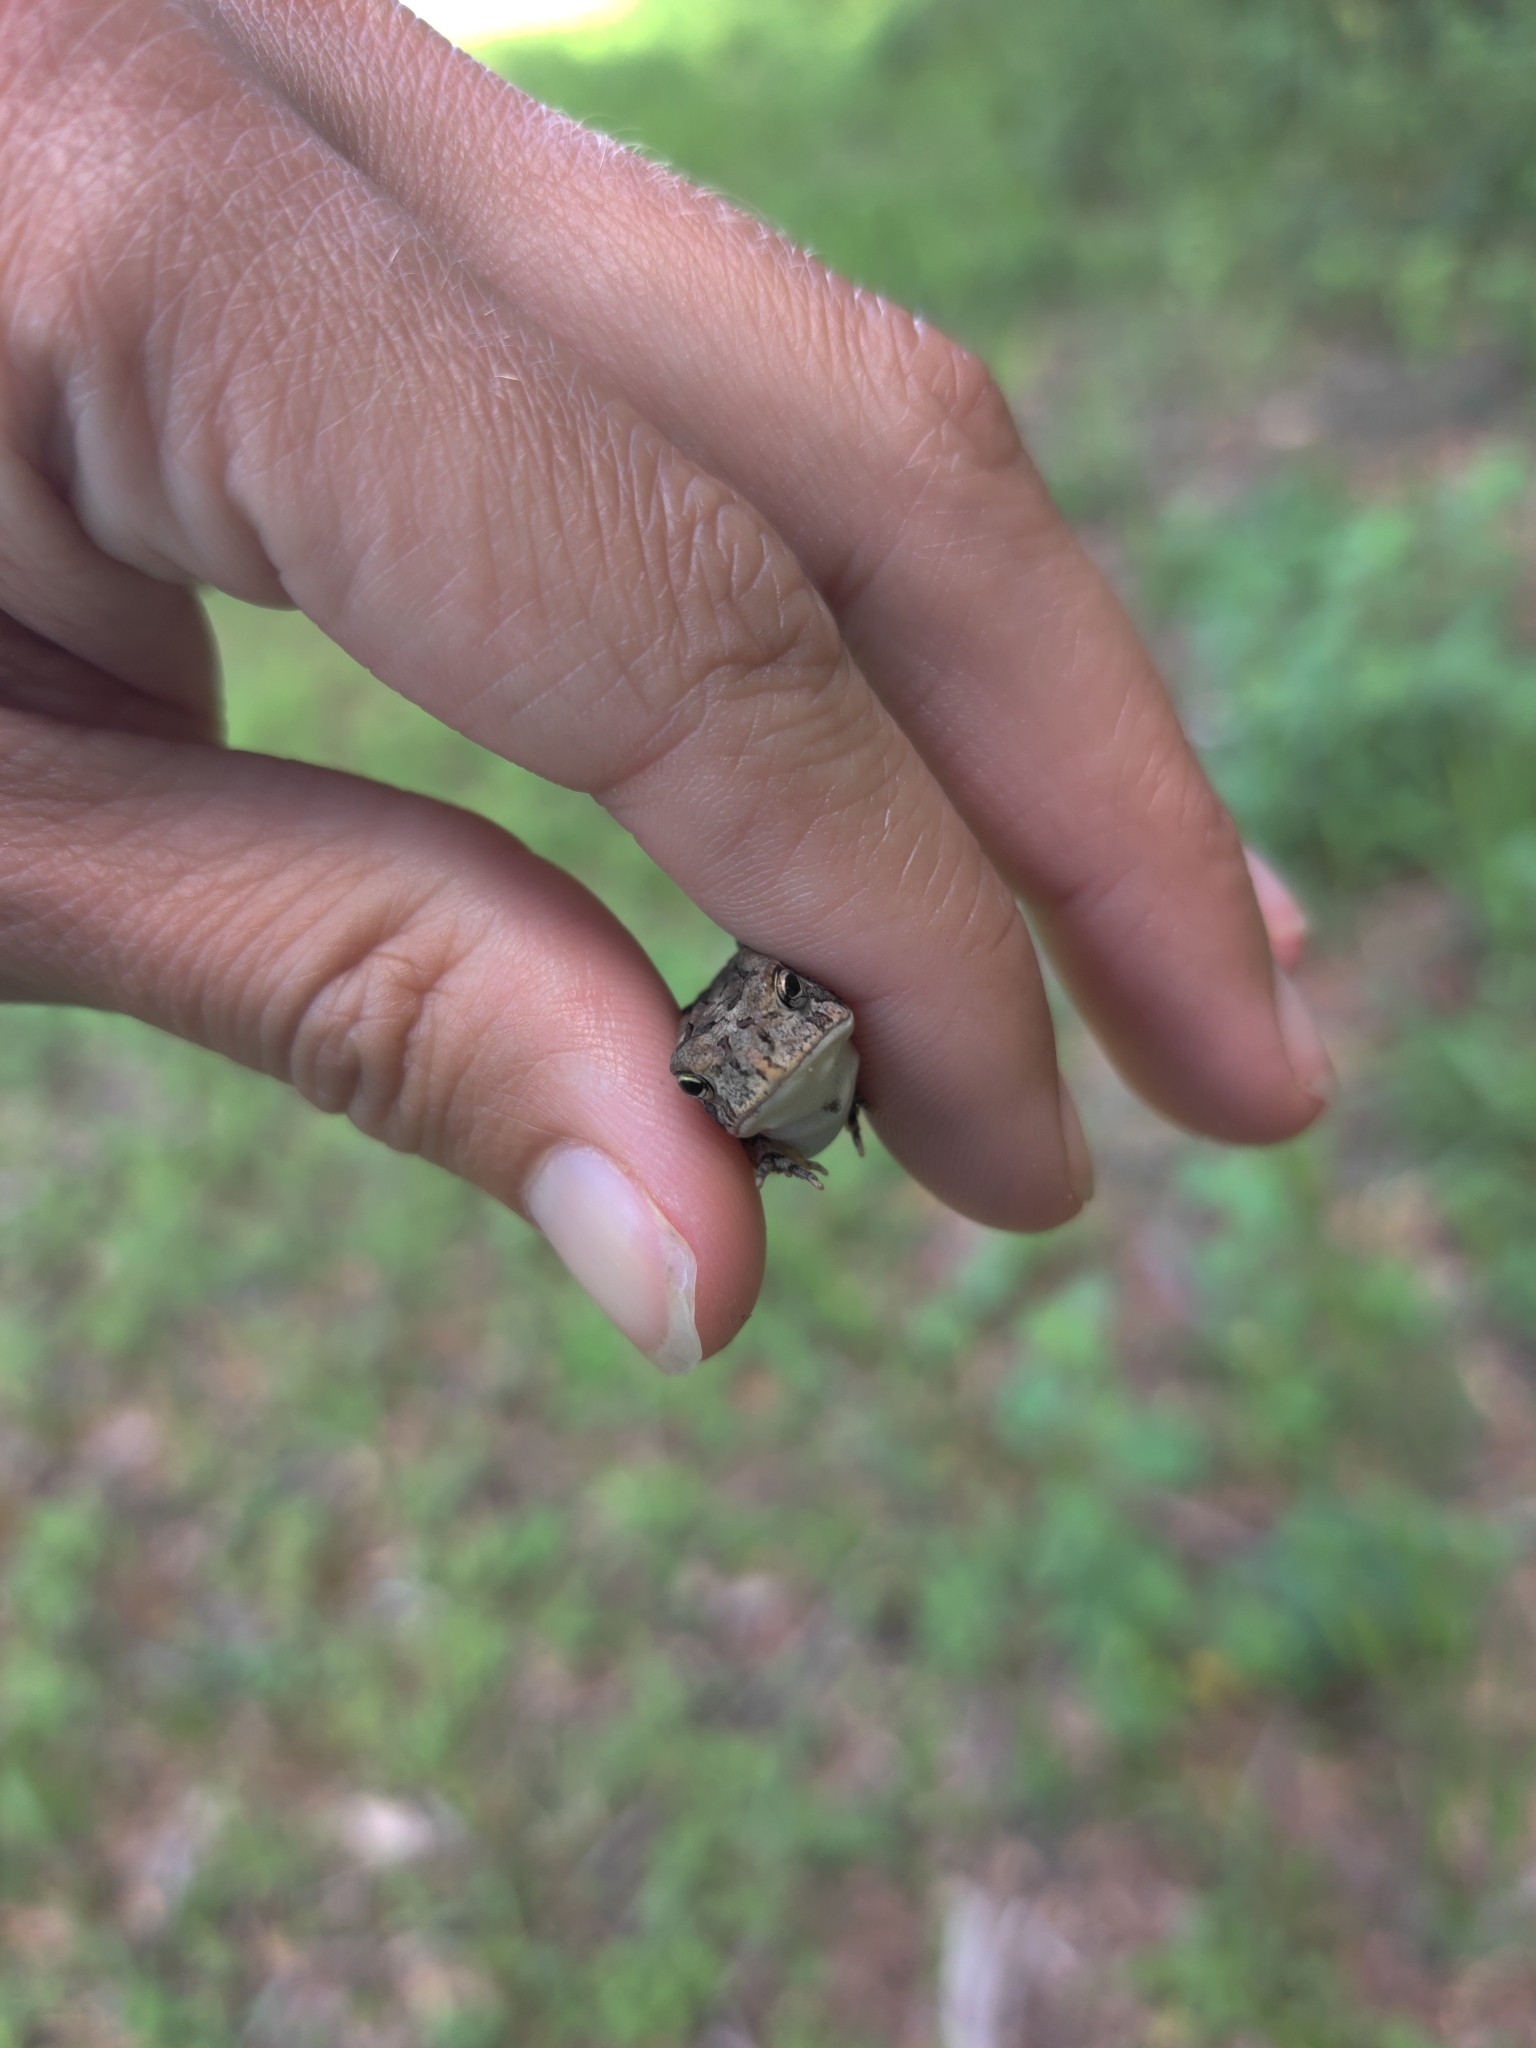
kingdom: Animalia
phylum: Chordata
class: Amphibia
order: Anura
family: Bufonidae
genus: Anaxyrus
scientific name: Anaxyrus terrestris
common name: Southern toad
